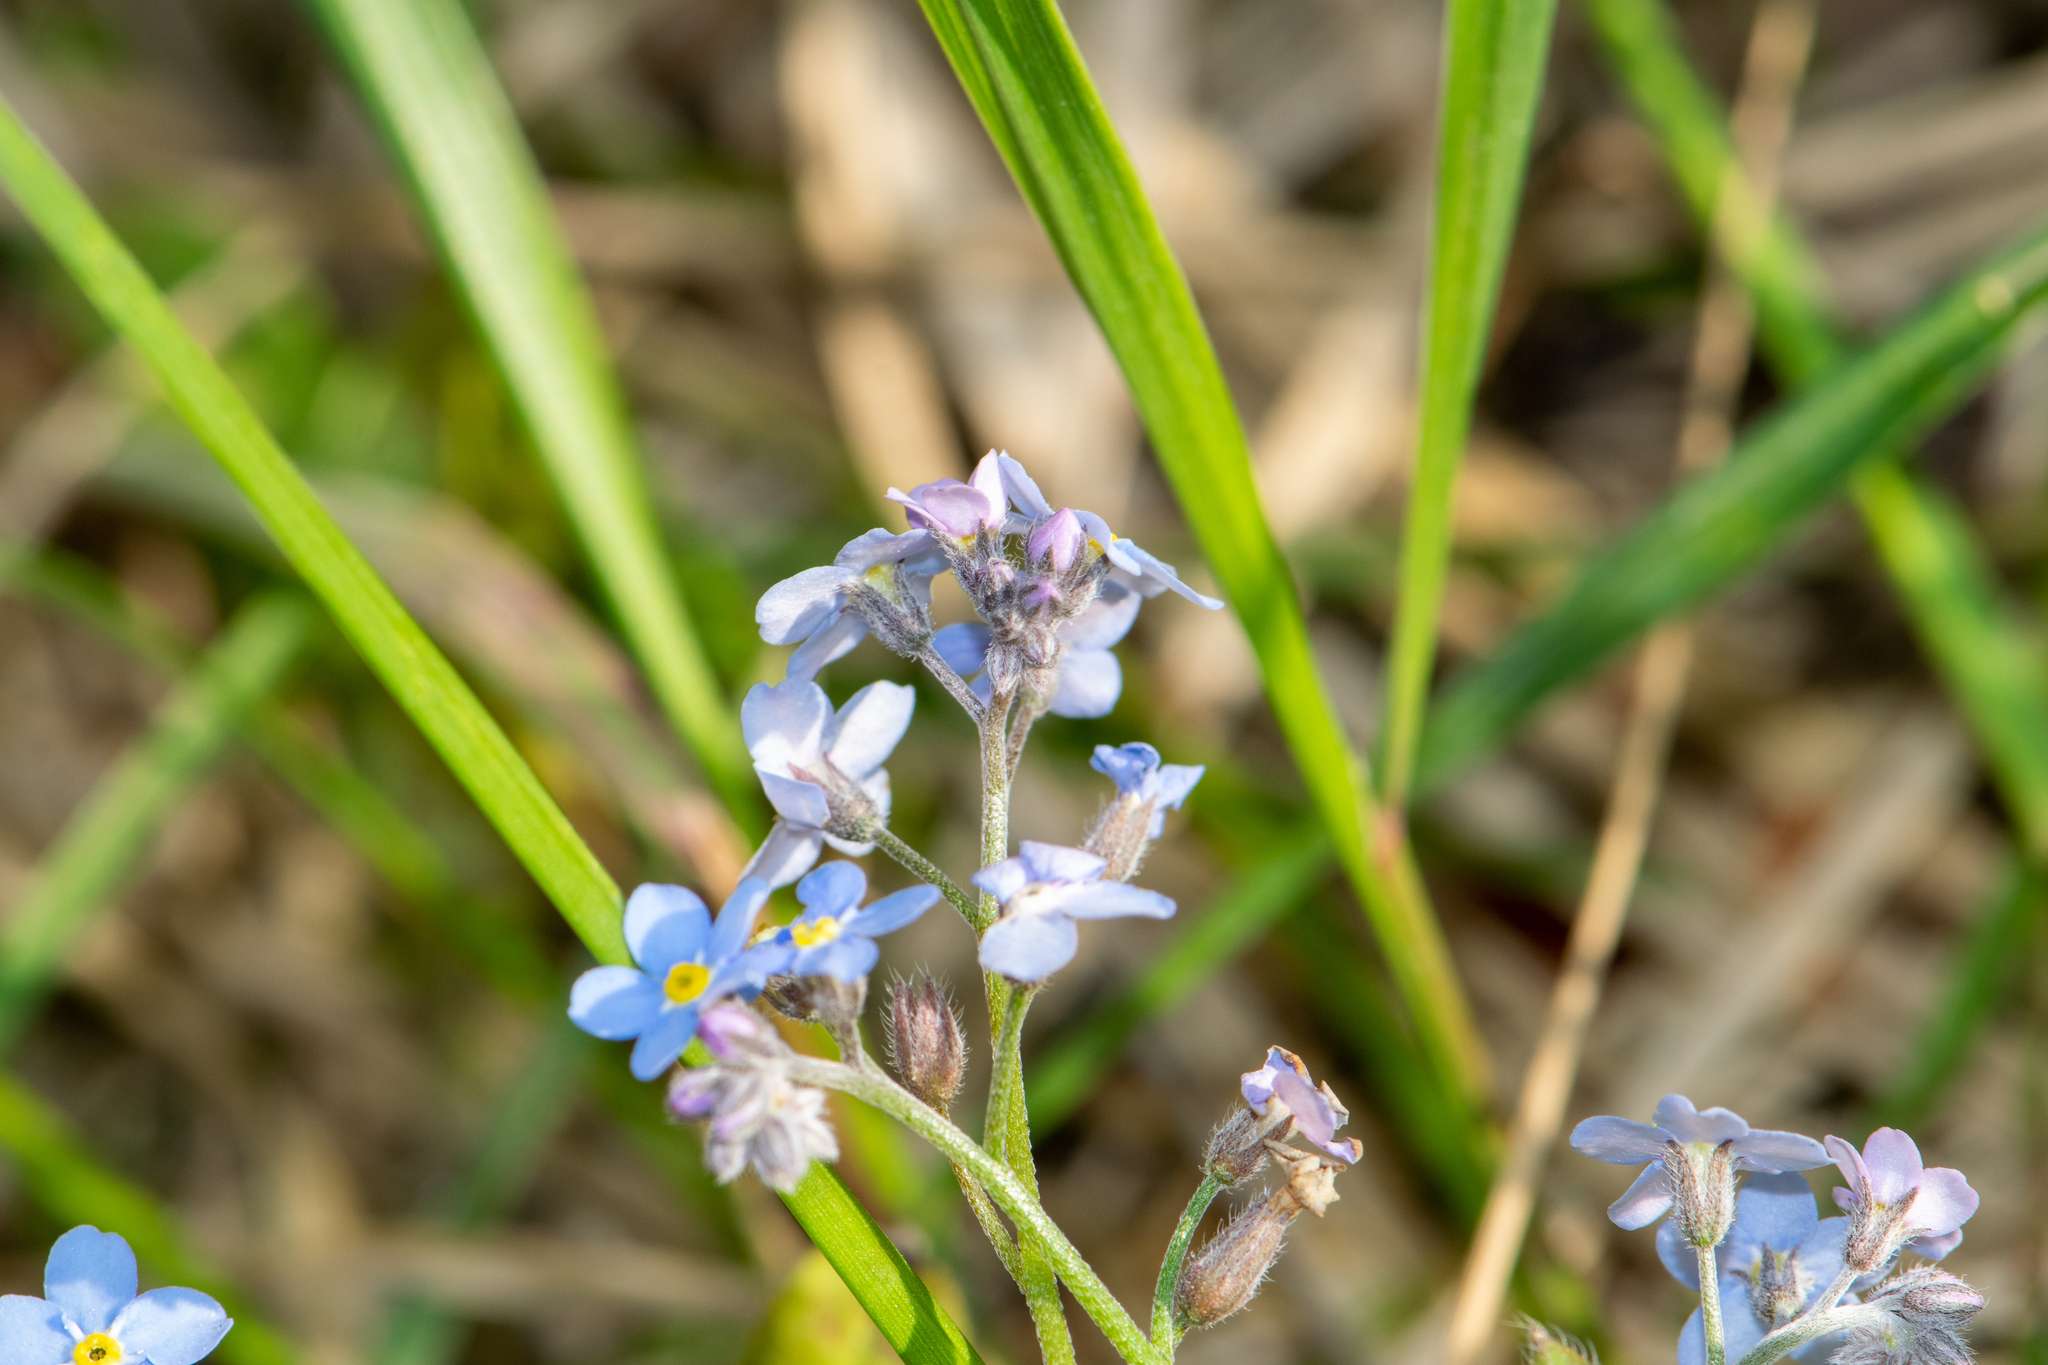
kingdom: Plantae
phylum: Tracheophyta
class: Magnoliopsida
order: Boraginales
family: Boraginaceae
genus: Myosotis
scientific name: Myosotis sylvatica
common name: Wood forget-me-not
